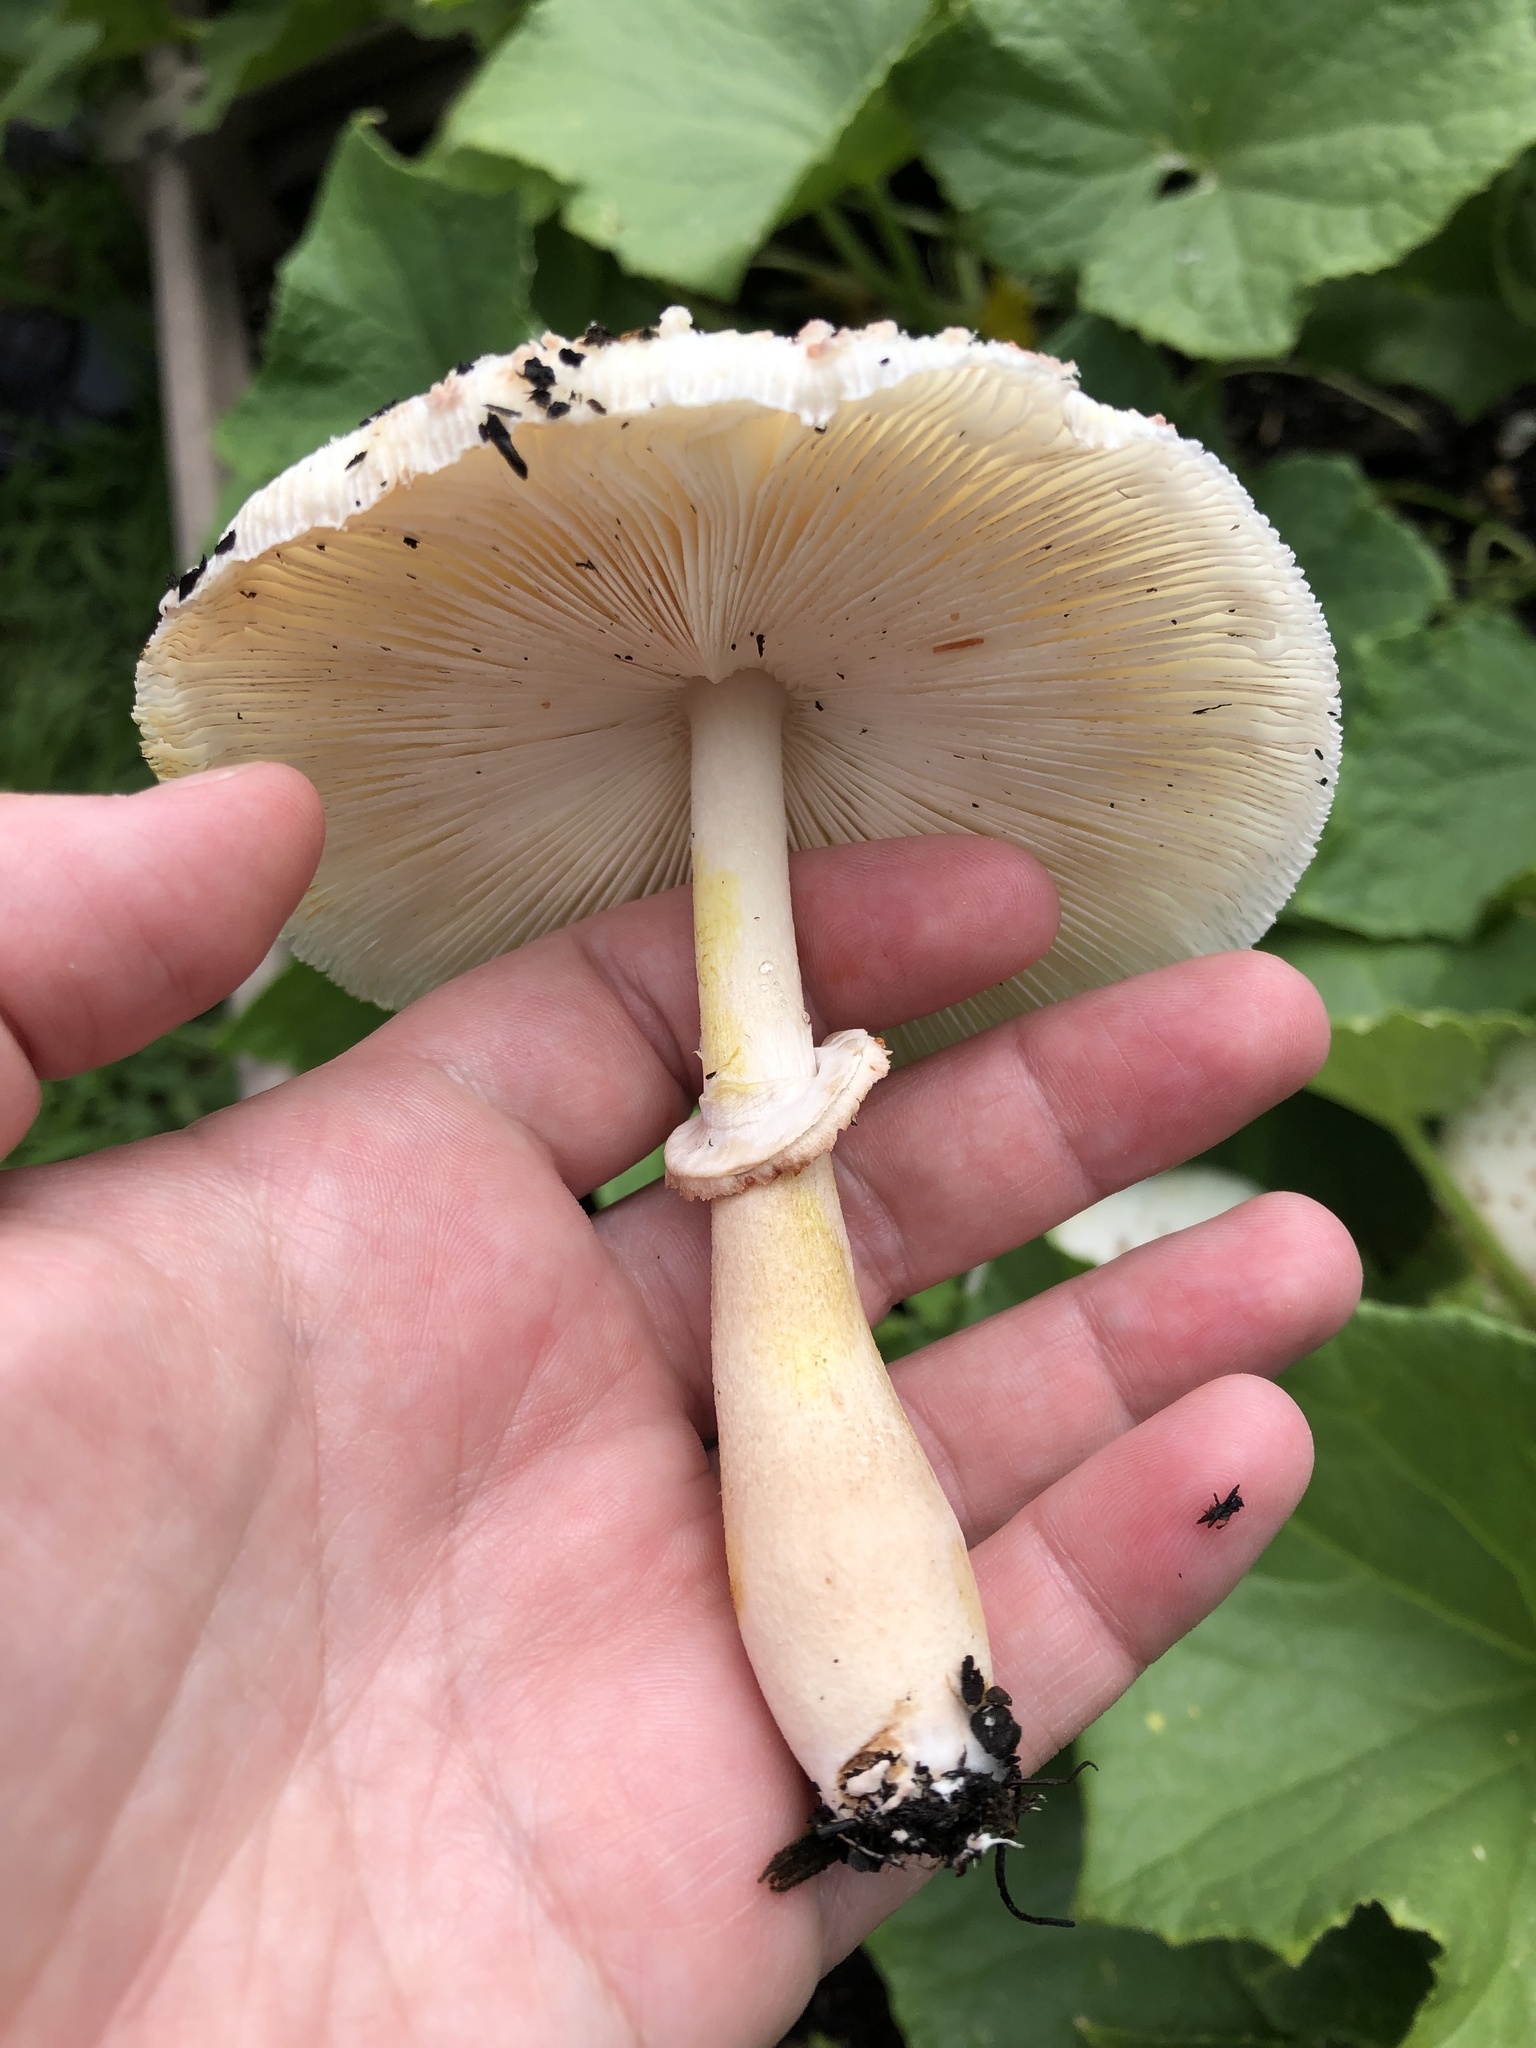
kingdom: Fungi
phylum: Basidiomycota
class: Agaricomycetes
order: Agaricales
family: Agaricaceae
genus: Leucoagaricus
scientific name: Leucoagaricus americanus
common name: Reddening lepiota
